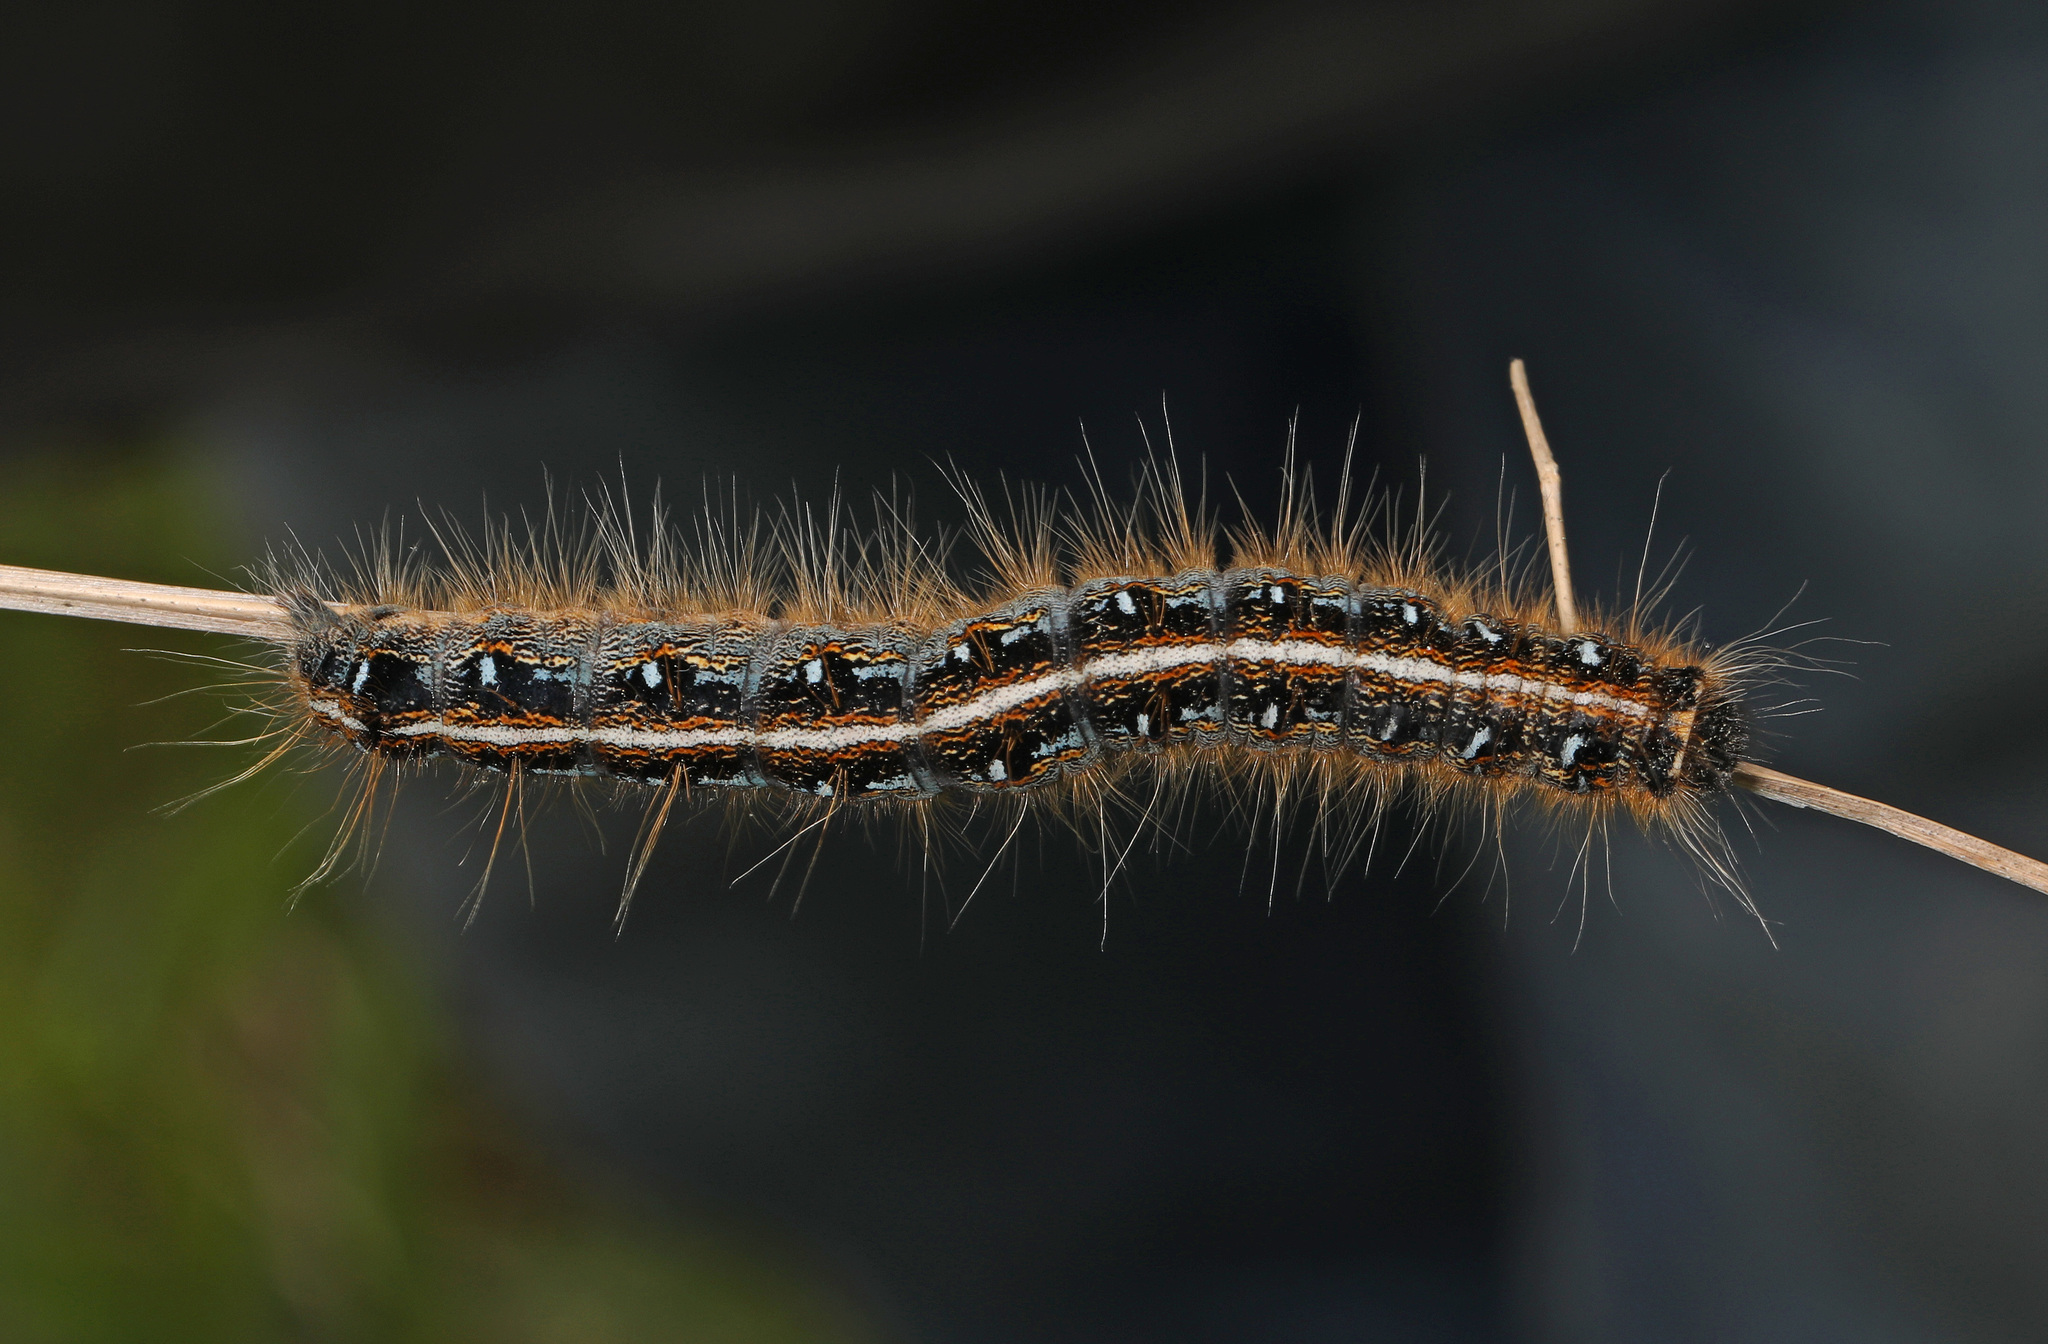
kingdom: Animalia
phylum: Arthropoda
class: Insecta
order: Lepidoptera
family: Lasiocampidae
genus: Malacosoma
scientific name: Malacosoma americana
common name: Eastern tent caterpillar moth
